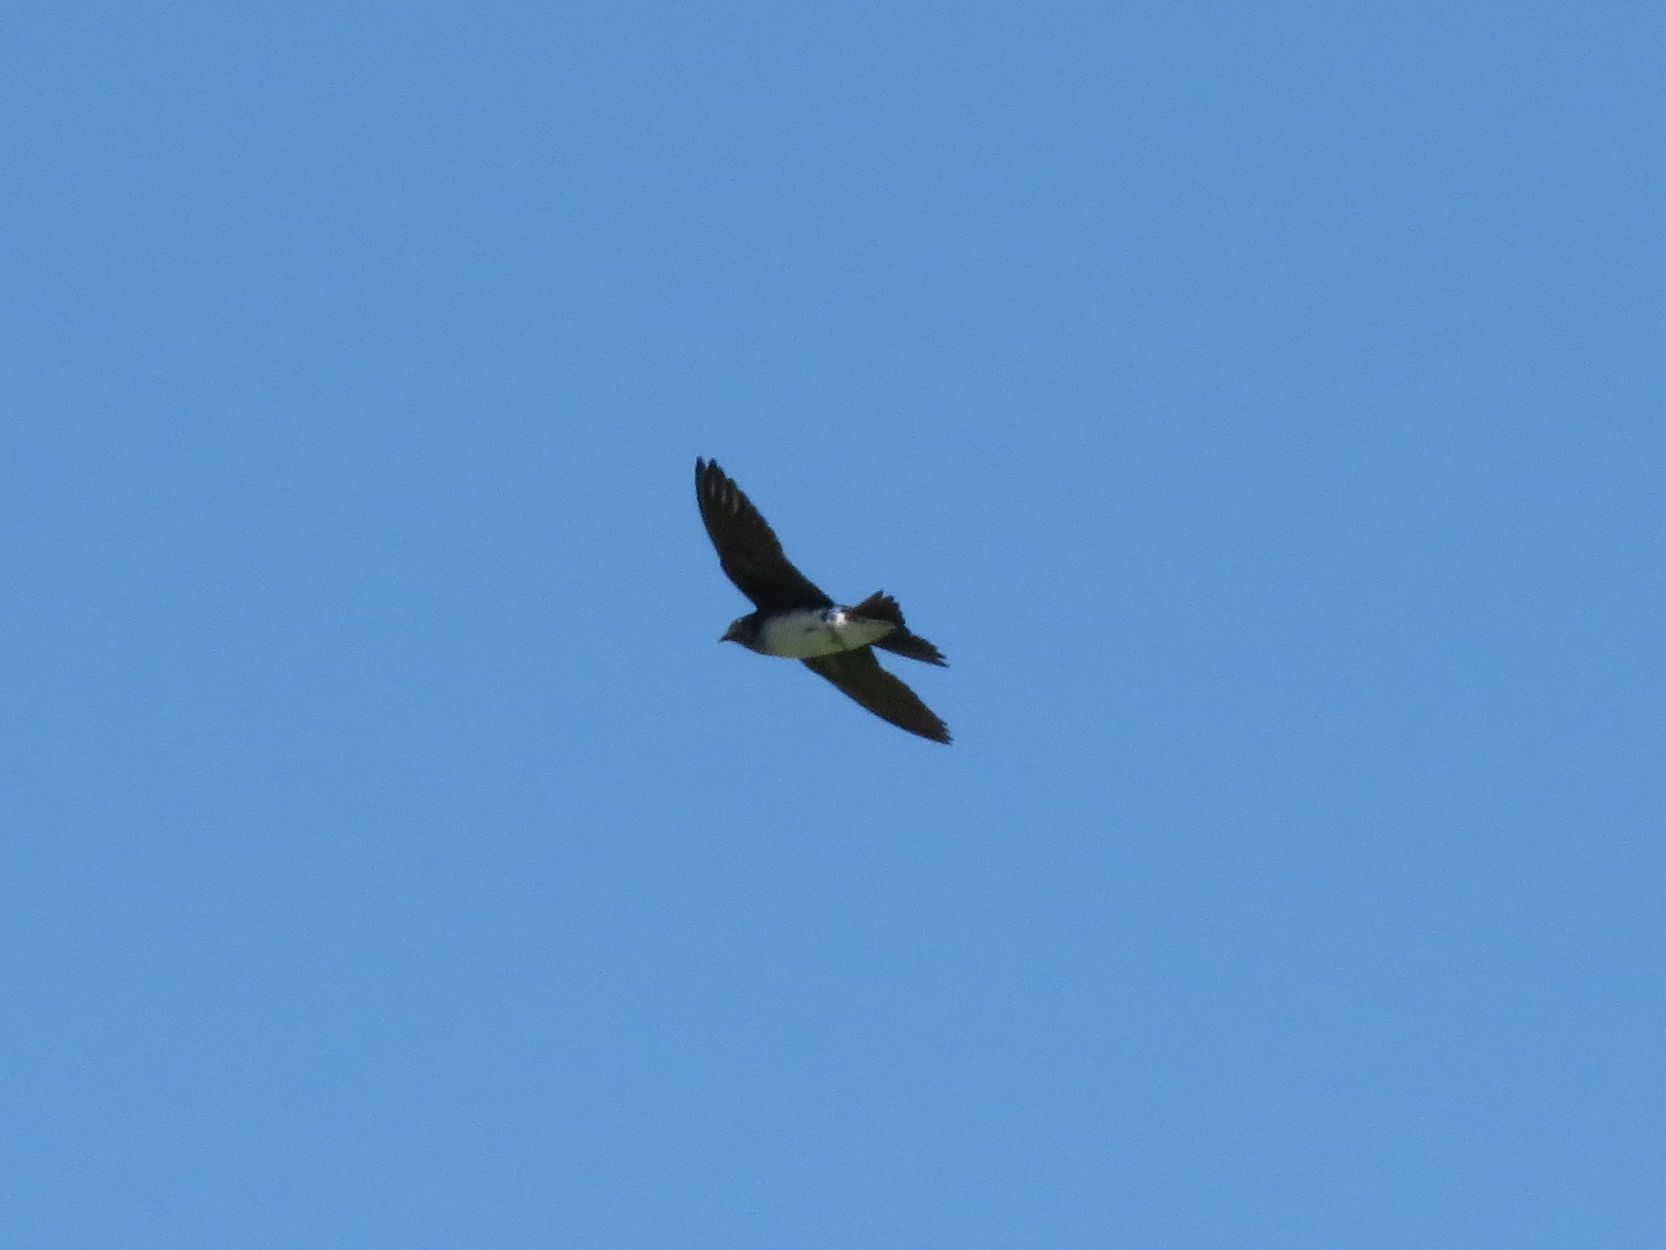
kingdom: Animalia
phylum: Chordata
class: Aves
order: Passeriformes
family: Hirundinidae
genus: Progne
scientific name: Progne chalybea
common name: Grey-breasted martin
